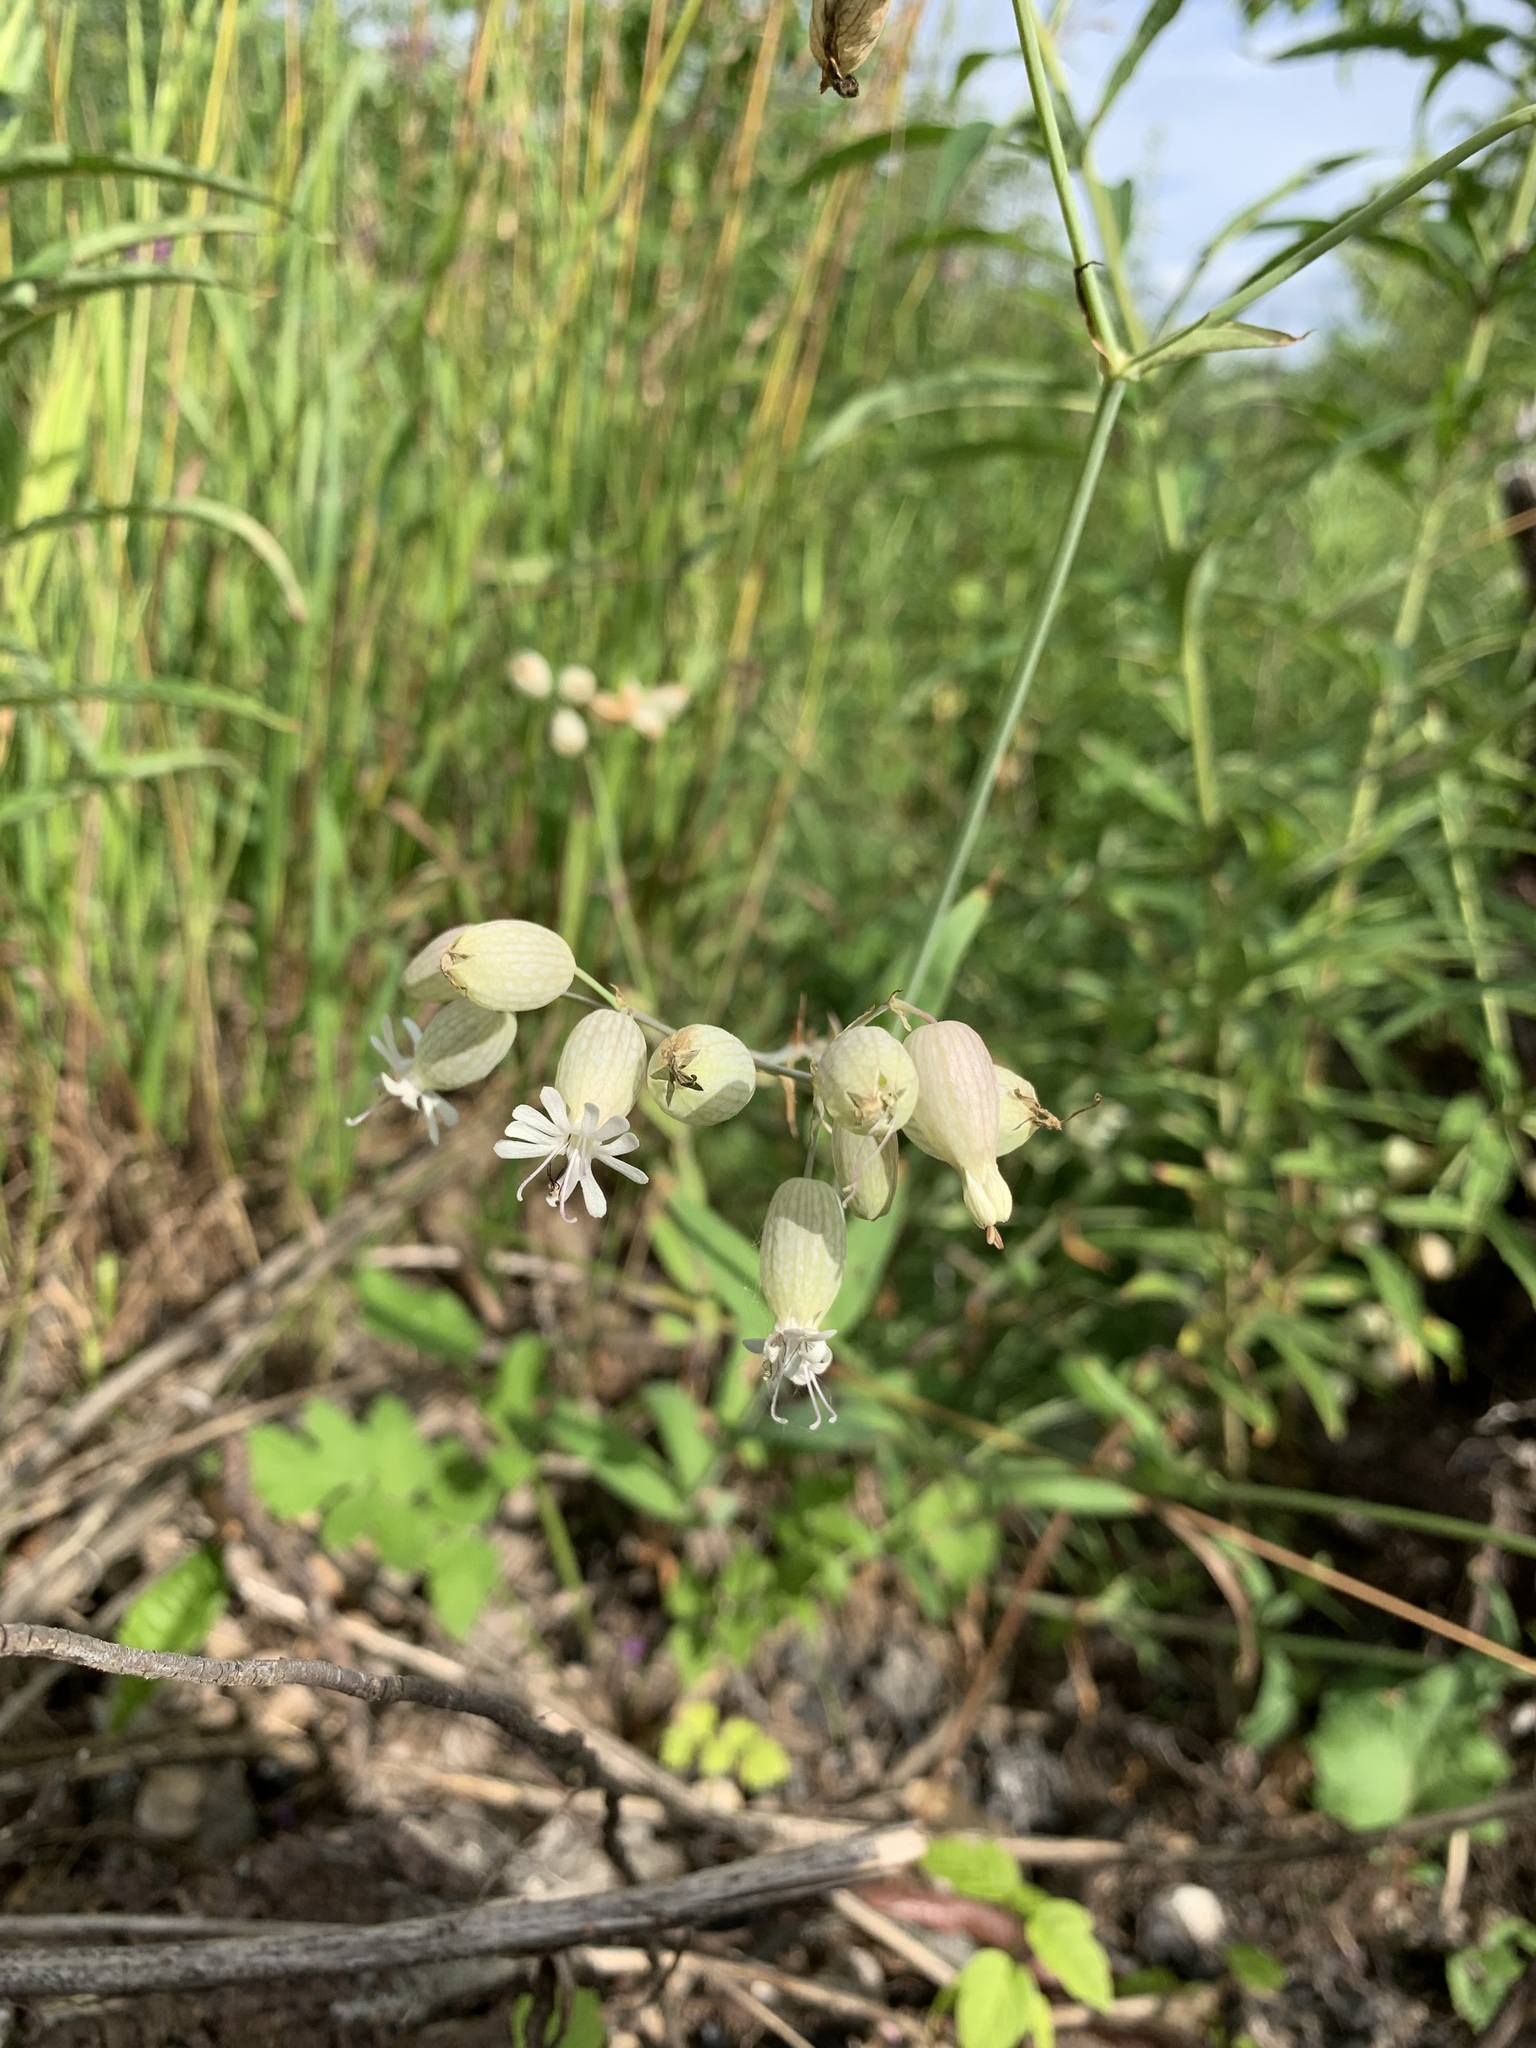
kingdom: Plantae
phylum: Tracheophyta
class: Magnoliopsida
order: Caryophyllales
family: Caryophyllaceae
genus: Silene
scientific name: Silene vulgaris
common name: Bladder campion
